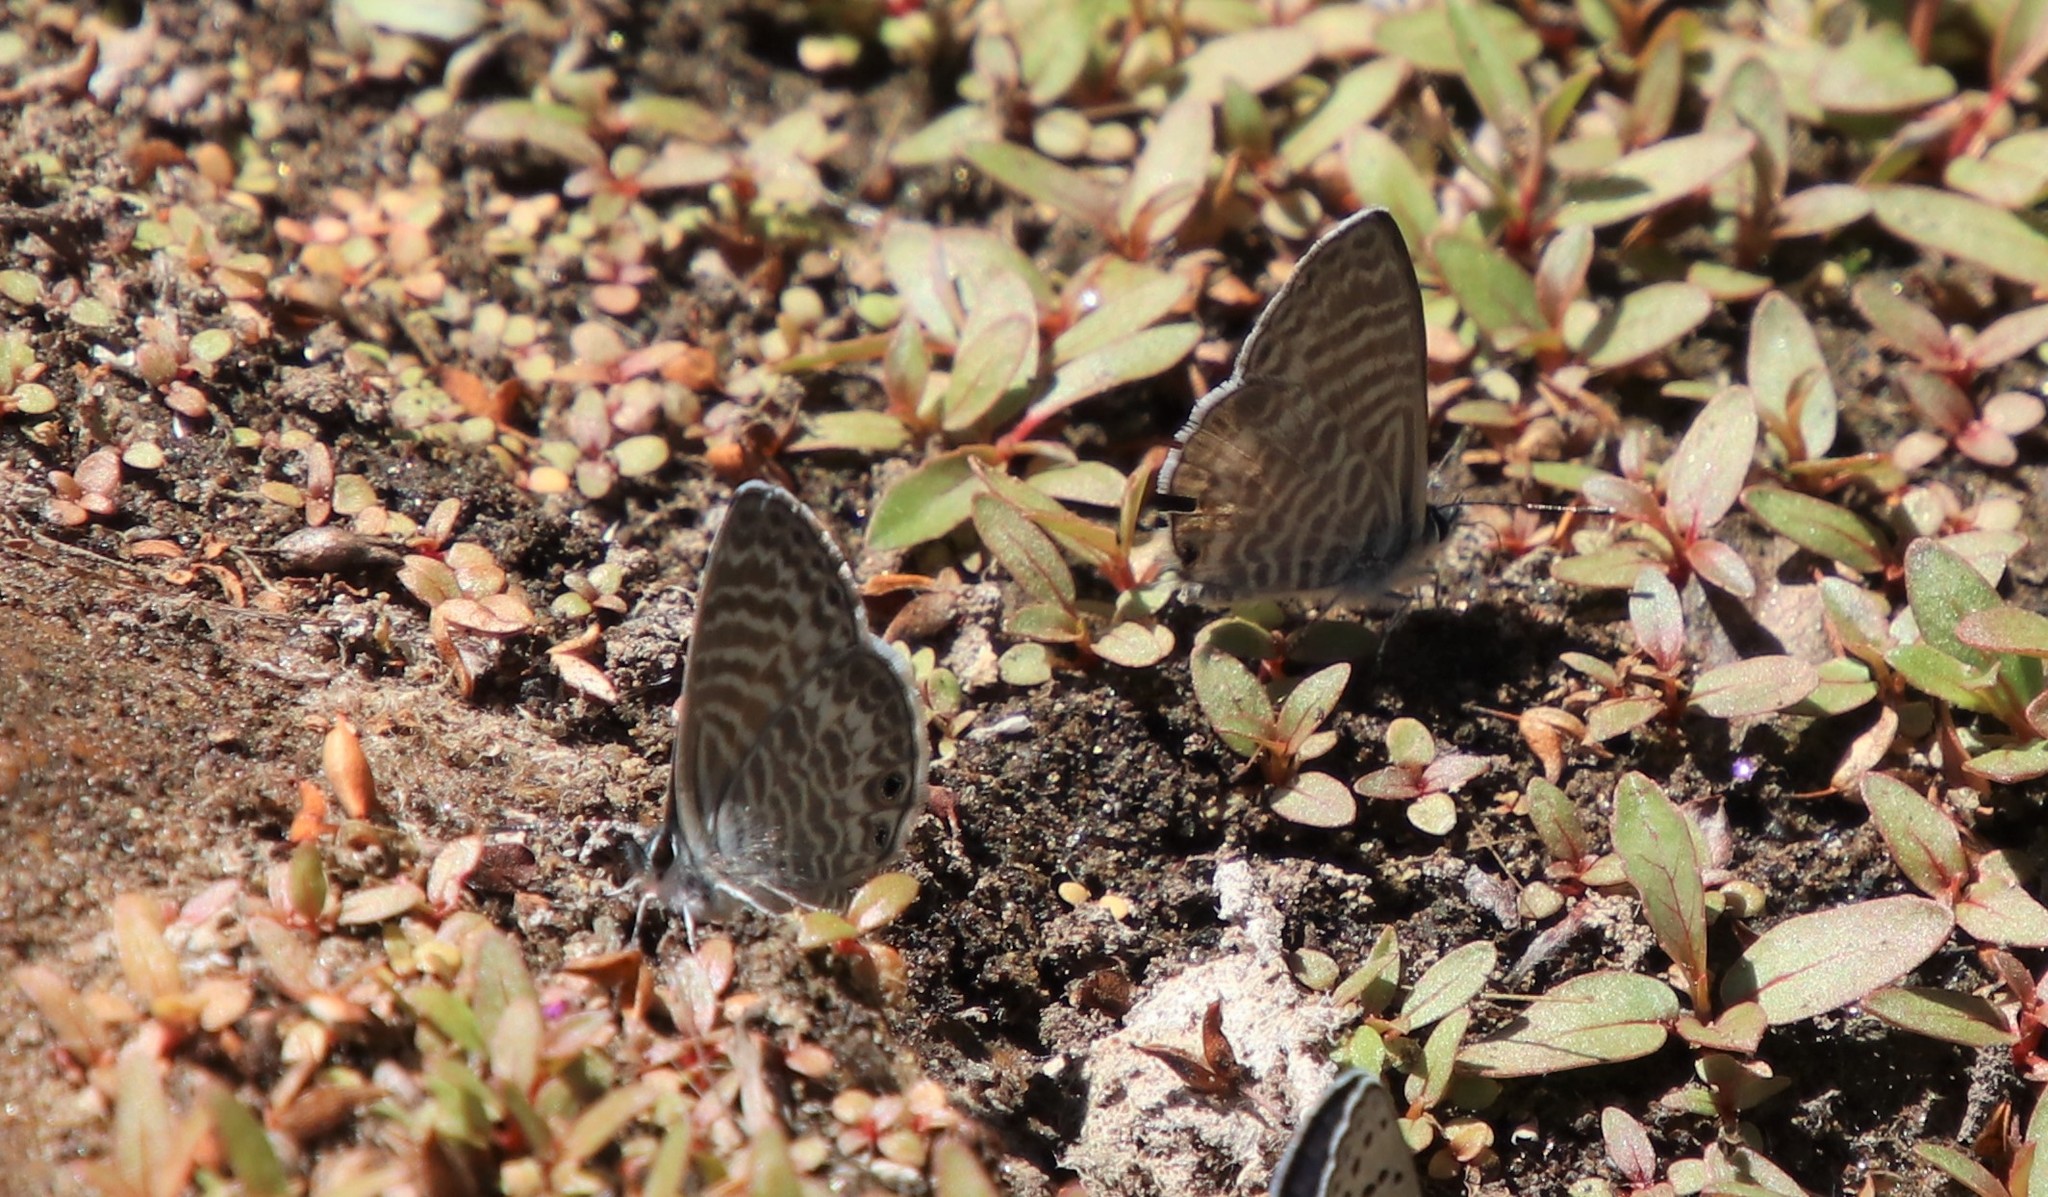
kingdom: Animalia
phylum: Arthropoda
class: Insecta
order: Lepidoptera
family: Lycaenidae
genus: Leptotes
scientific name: Leptotes marina
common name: Marine blue
